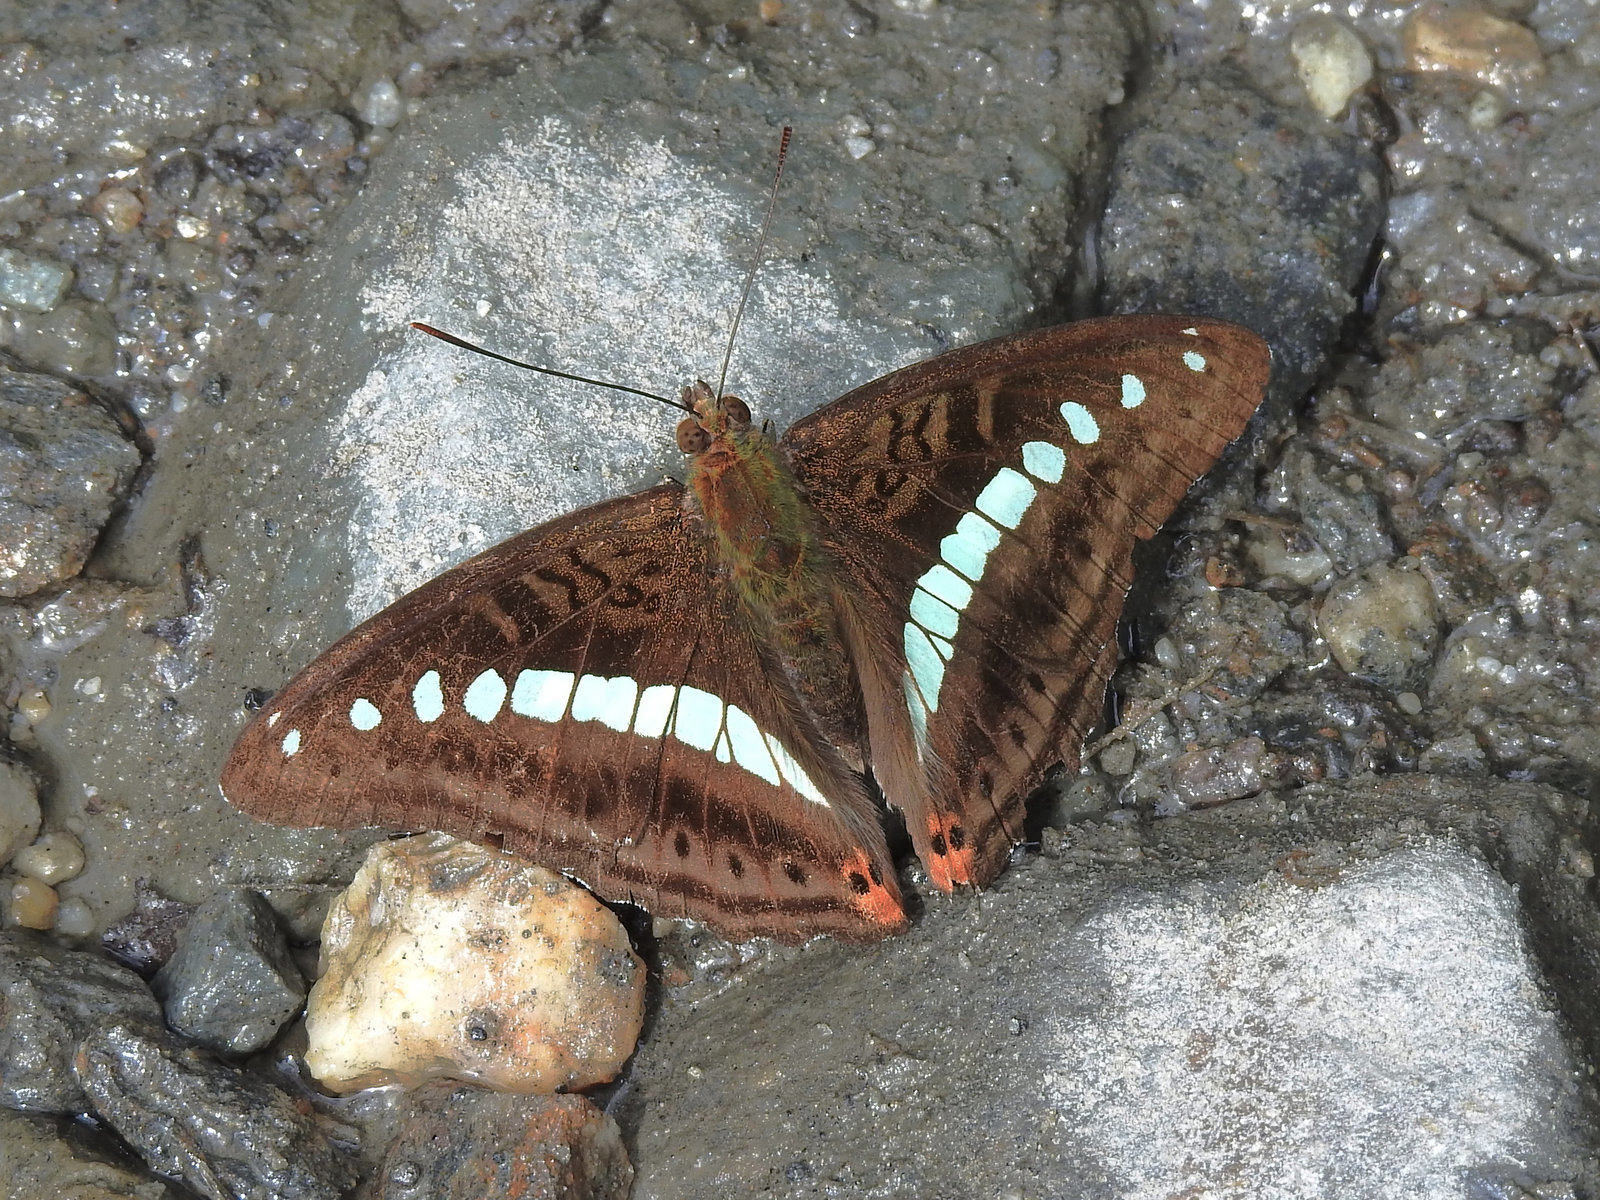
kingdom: Animalia
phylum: Arthropoda
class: Insecta
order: Lepidoptera
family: Nymphalidae
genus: Limenitis
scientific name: Limenitis Sumalia daraxa
